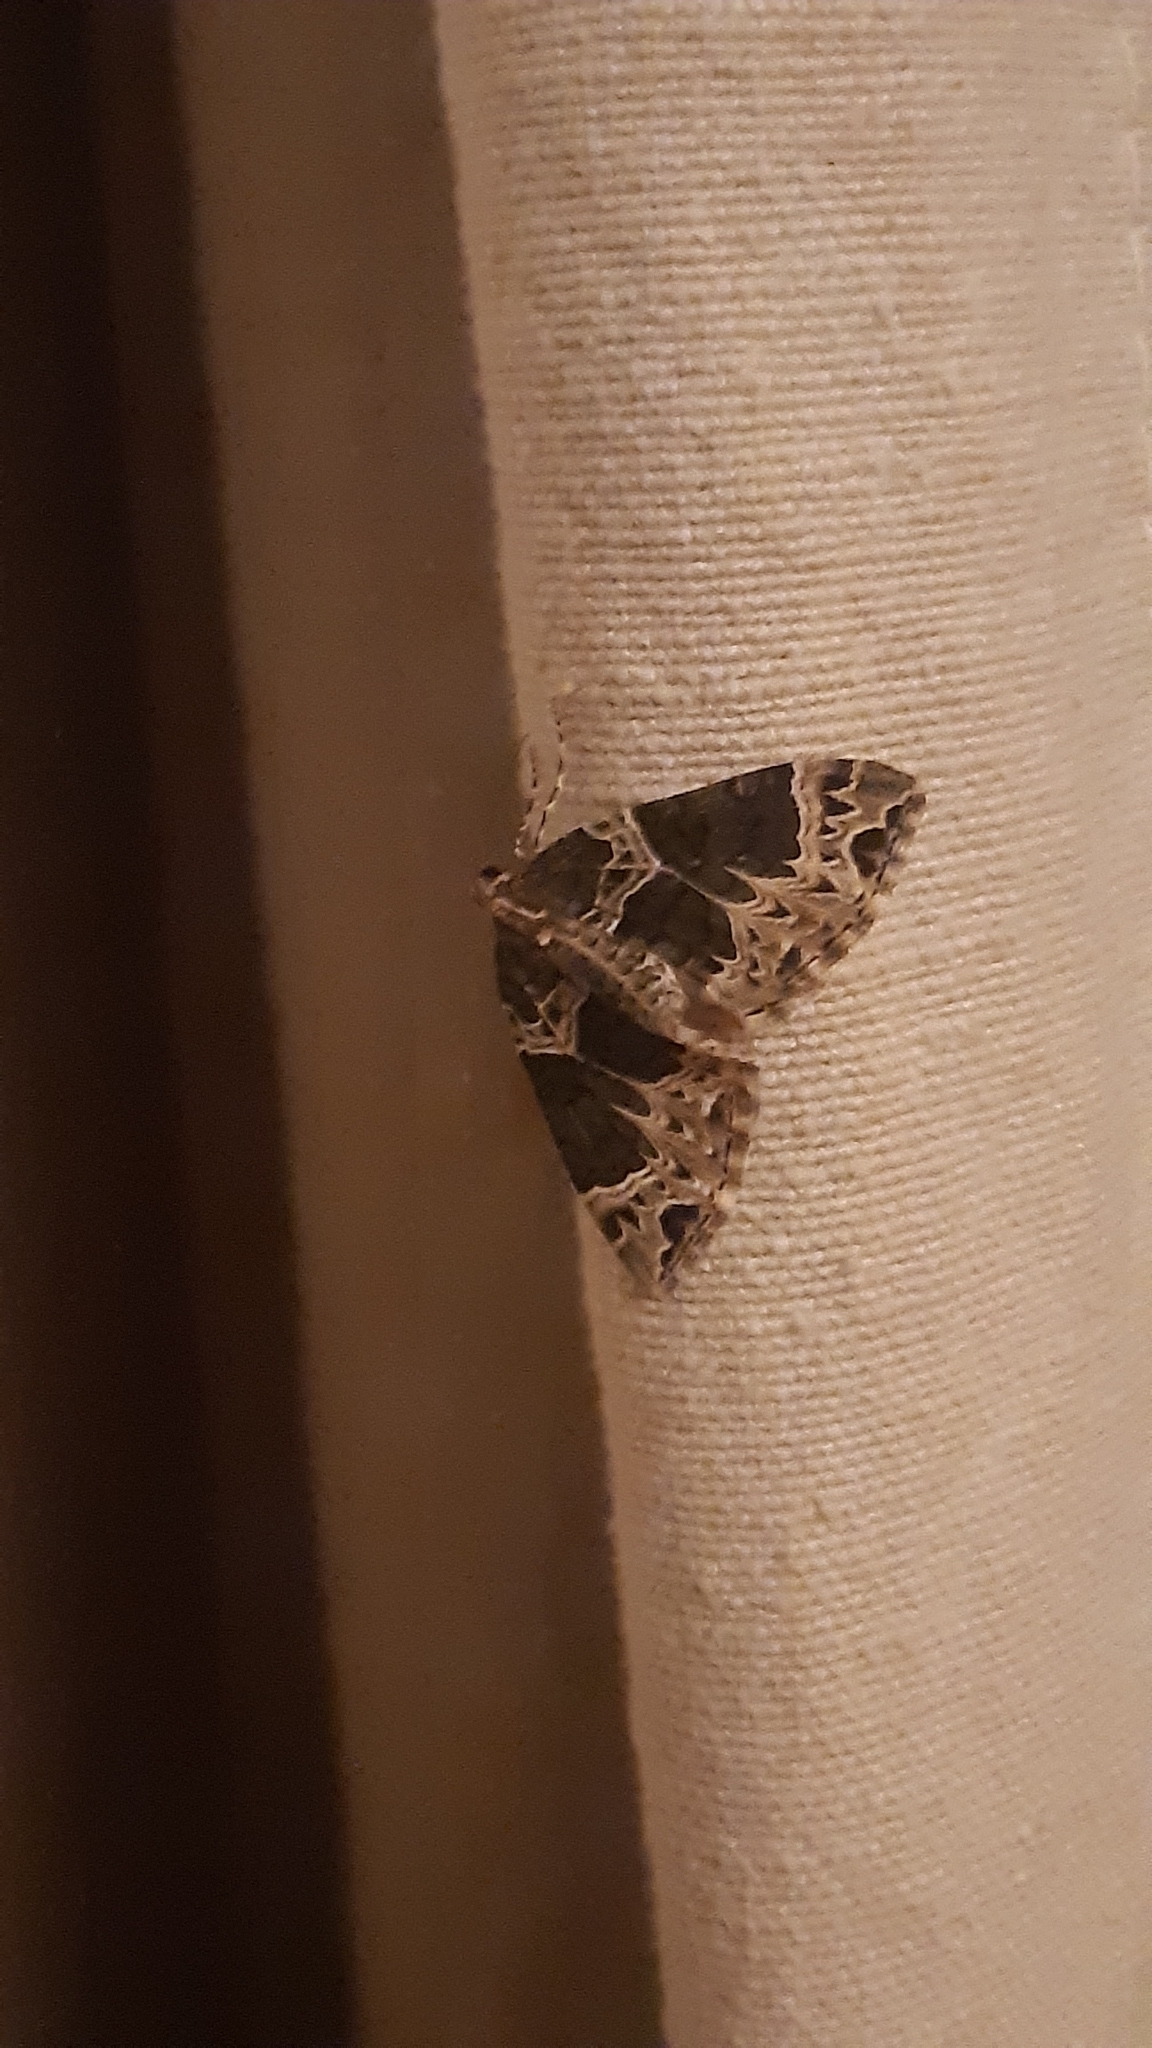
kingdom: Animalia
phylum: Arthropoda
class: Insecta
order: Lepidoptera
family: Geometridae
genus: Ecliptopera
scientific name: Ecliptopera silaceata
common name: Small phoenix
